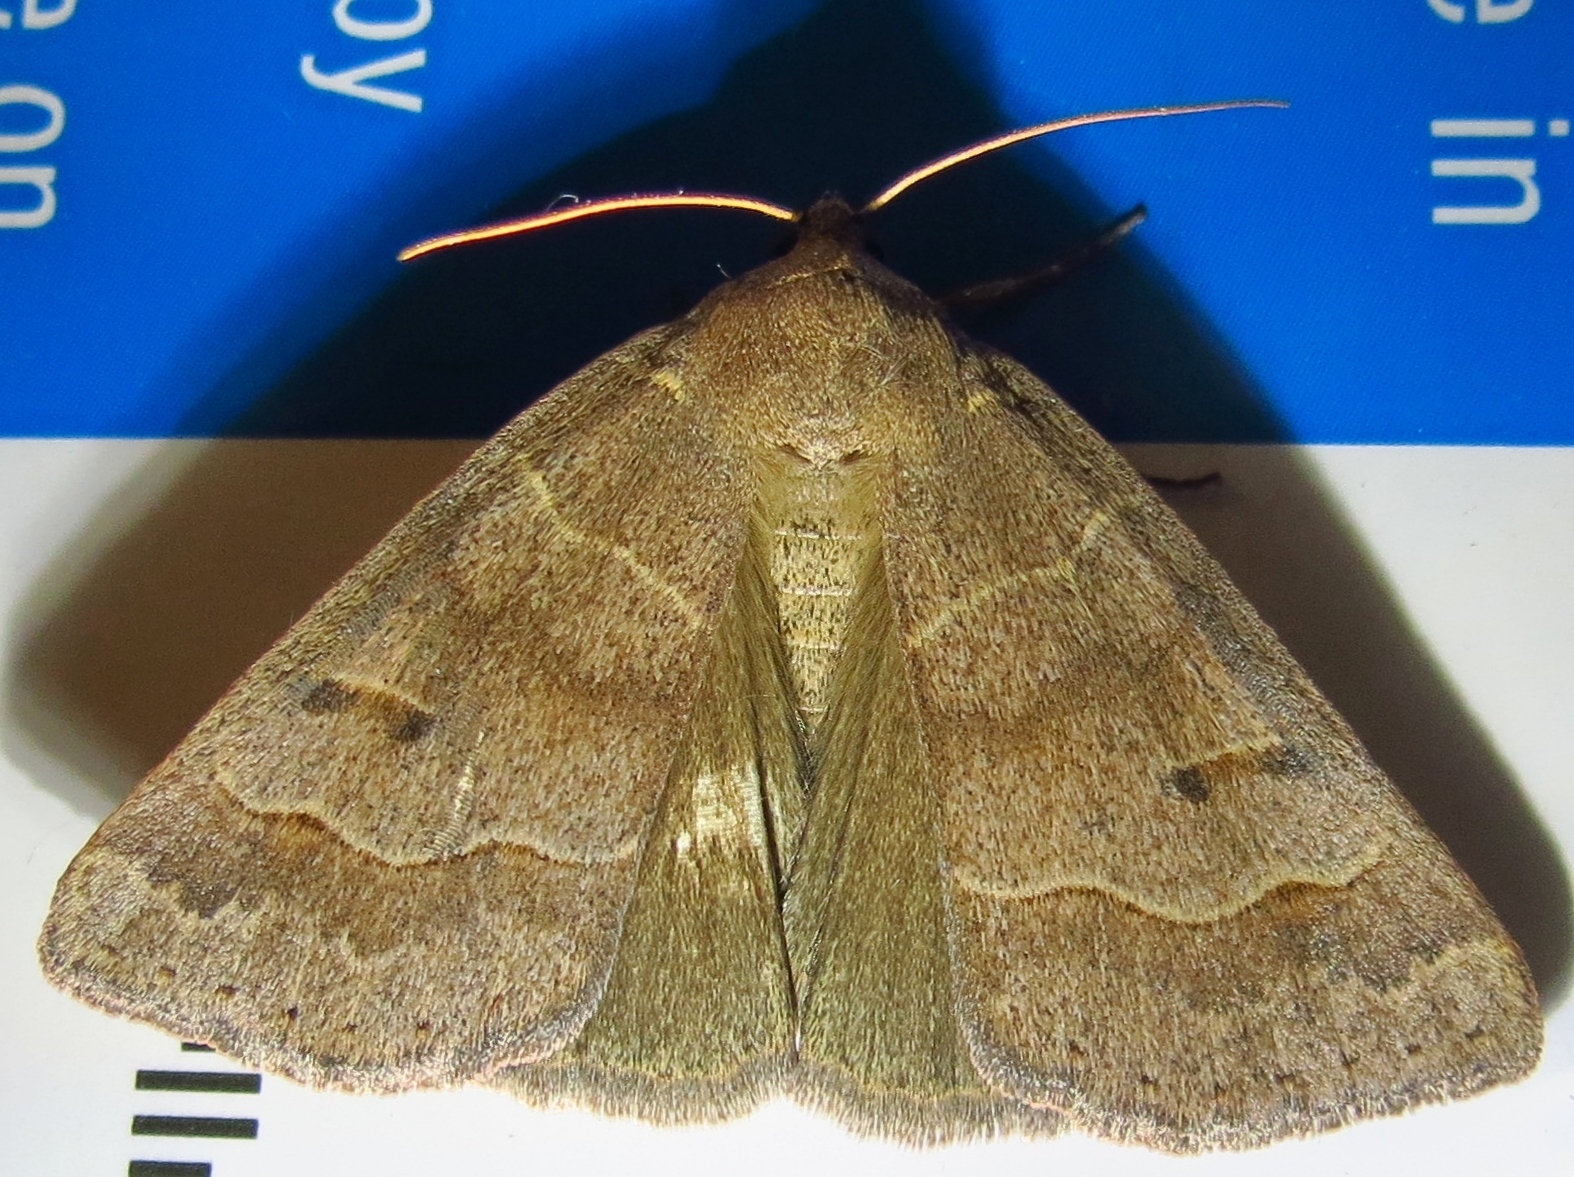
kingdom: Animalia
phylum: Arthropoda
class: Insecta
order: Lepidoptera
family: Erebidae
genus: Phoberia
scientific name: Phoberia atomaris
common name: Common oak moth
